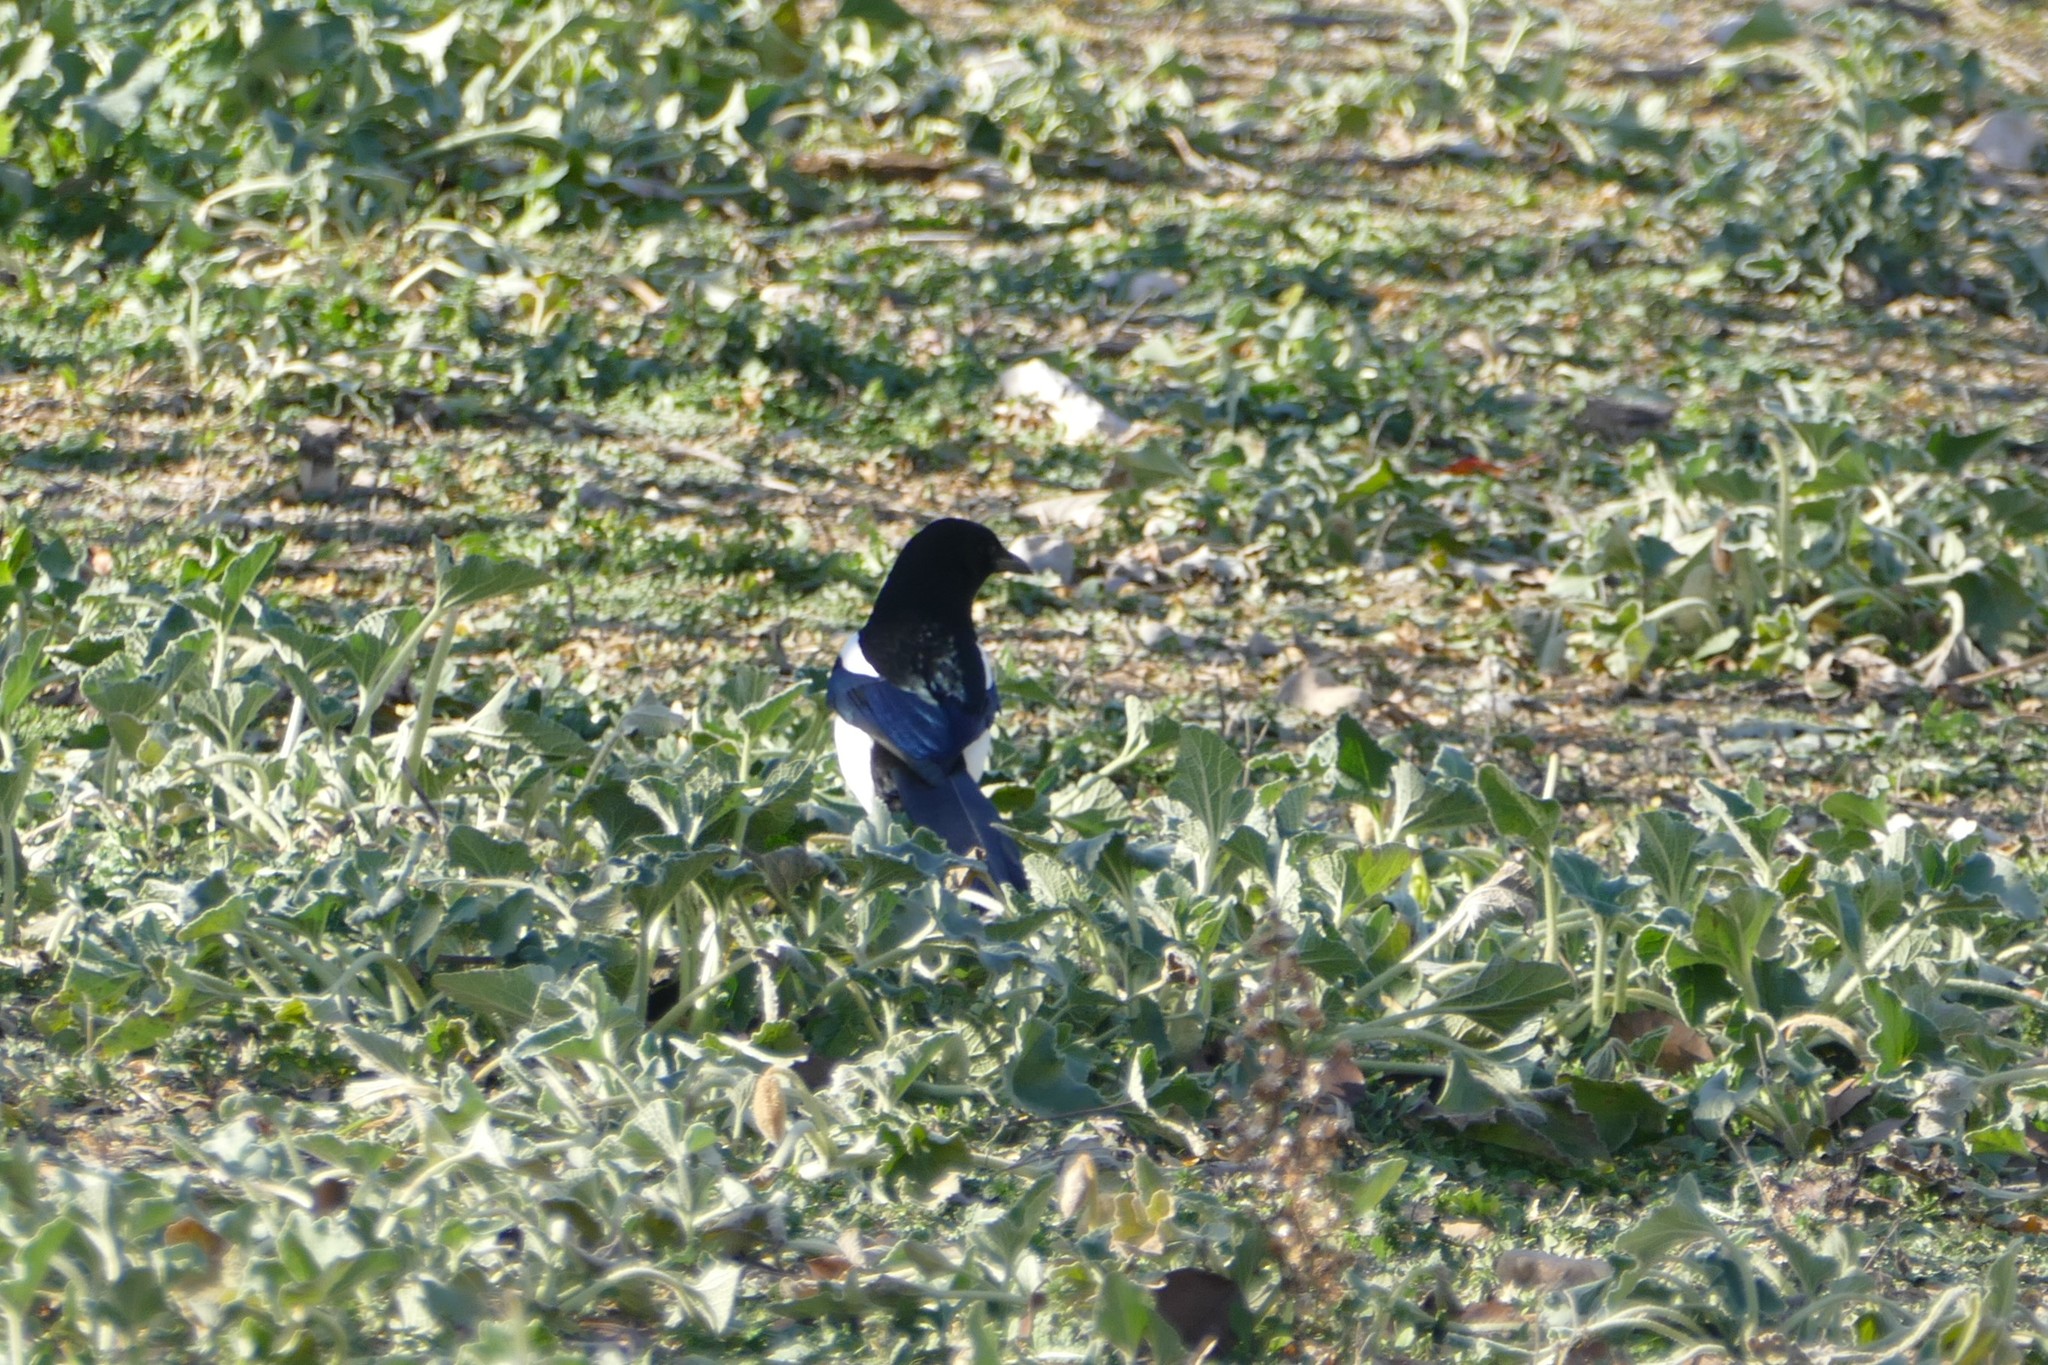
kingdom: Animalia
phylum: Chordata
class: Aves
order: Passeriformes
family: Corvidae
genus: Pica
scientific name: Pica pica
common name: Eurasian magpie
